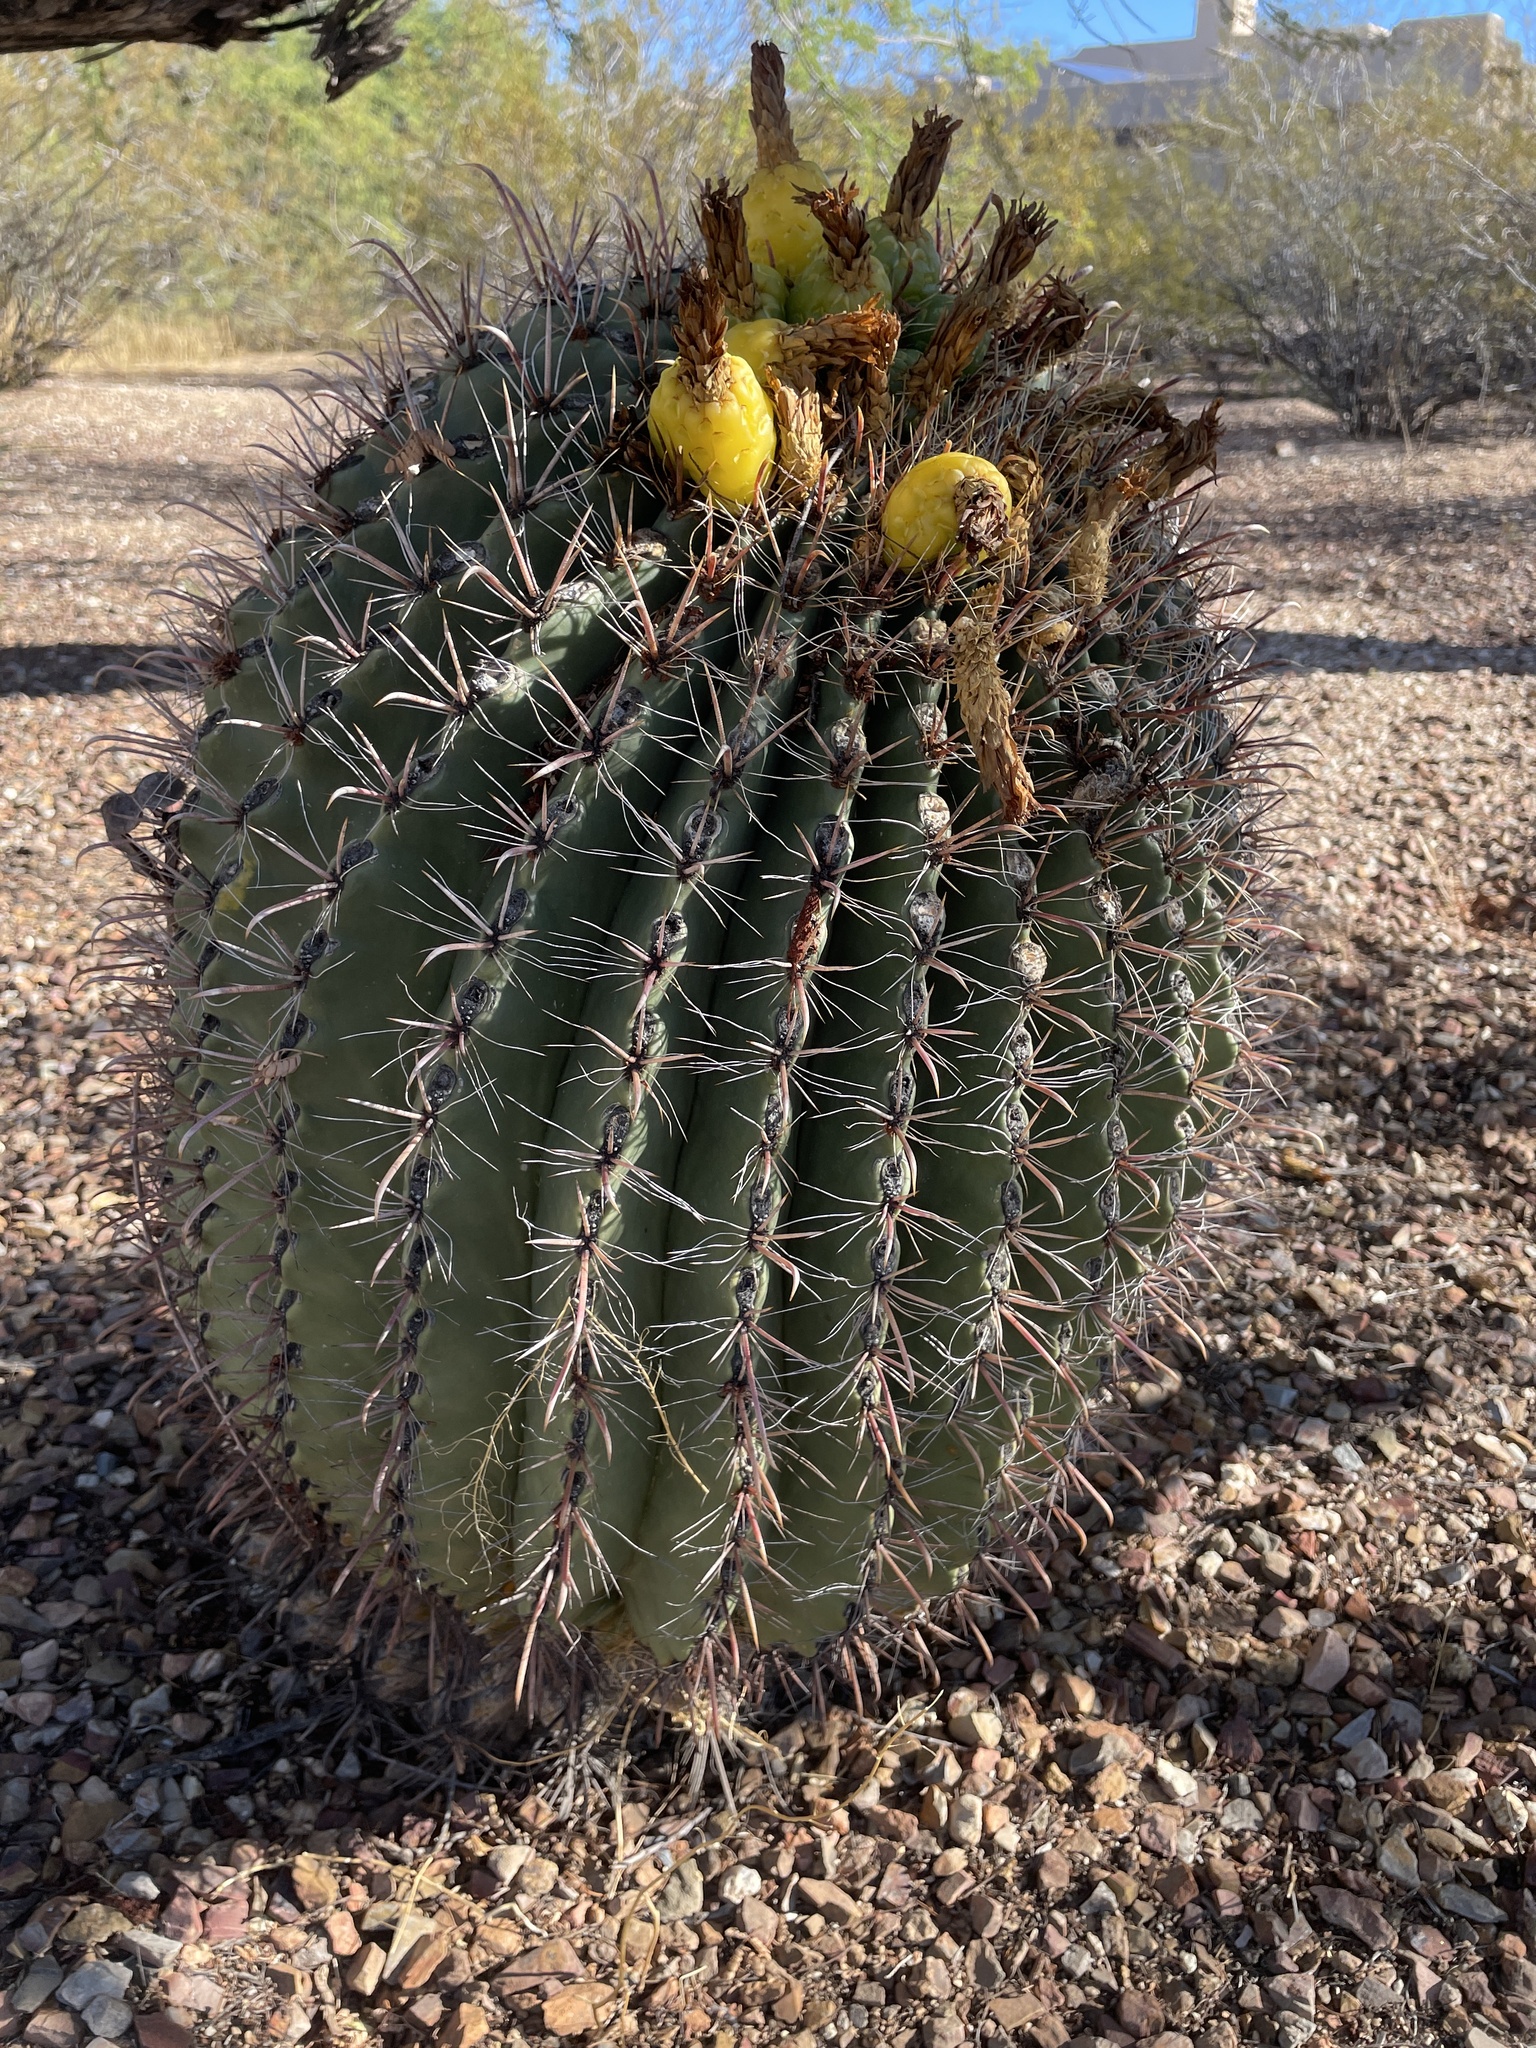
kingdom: Plantae
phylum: Tracheophyta
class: Magnoliopsida
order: Caryophyllales
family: Cactaceae
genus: Ferocactus
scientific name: Ferocactus wislizeni
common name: Candy barrel cactus
